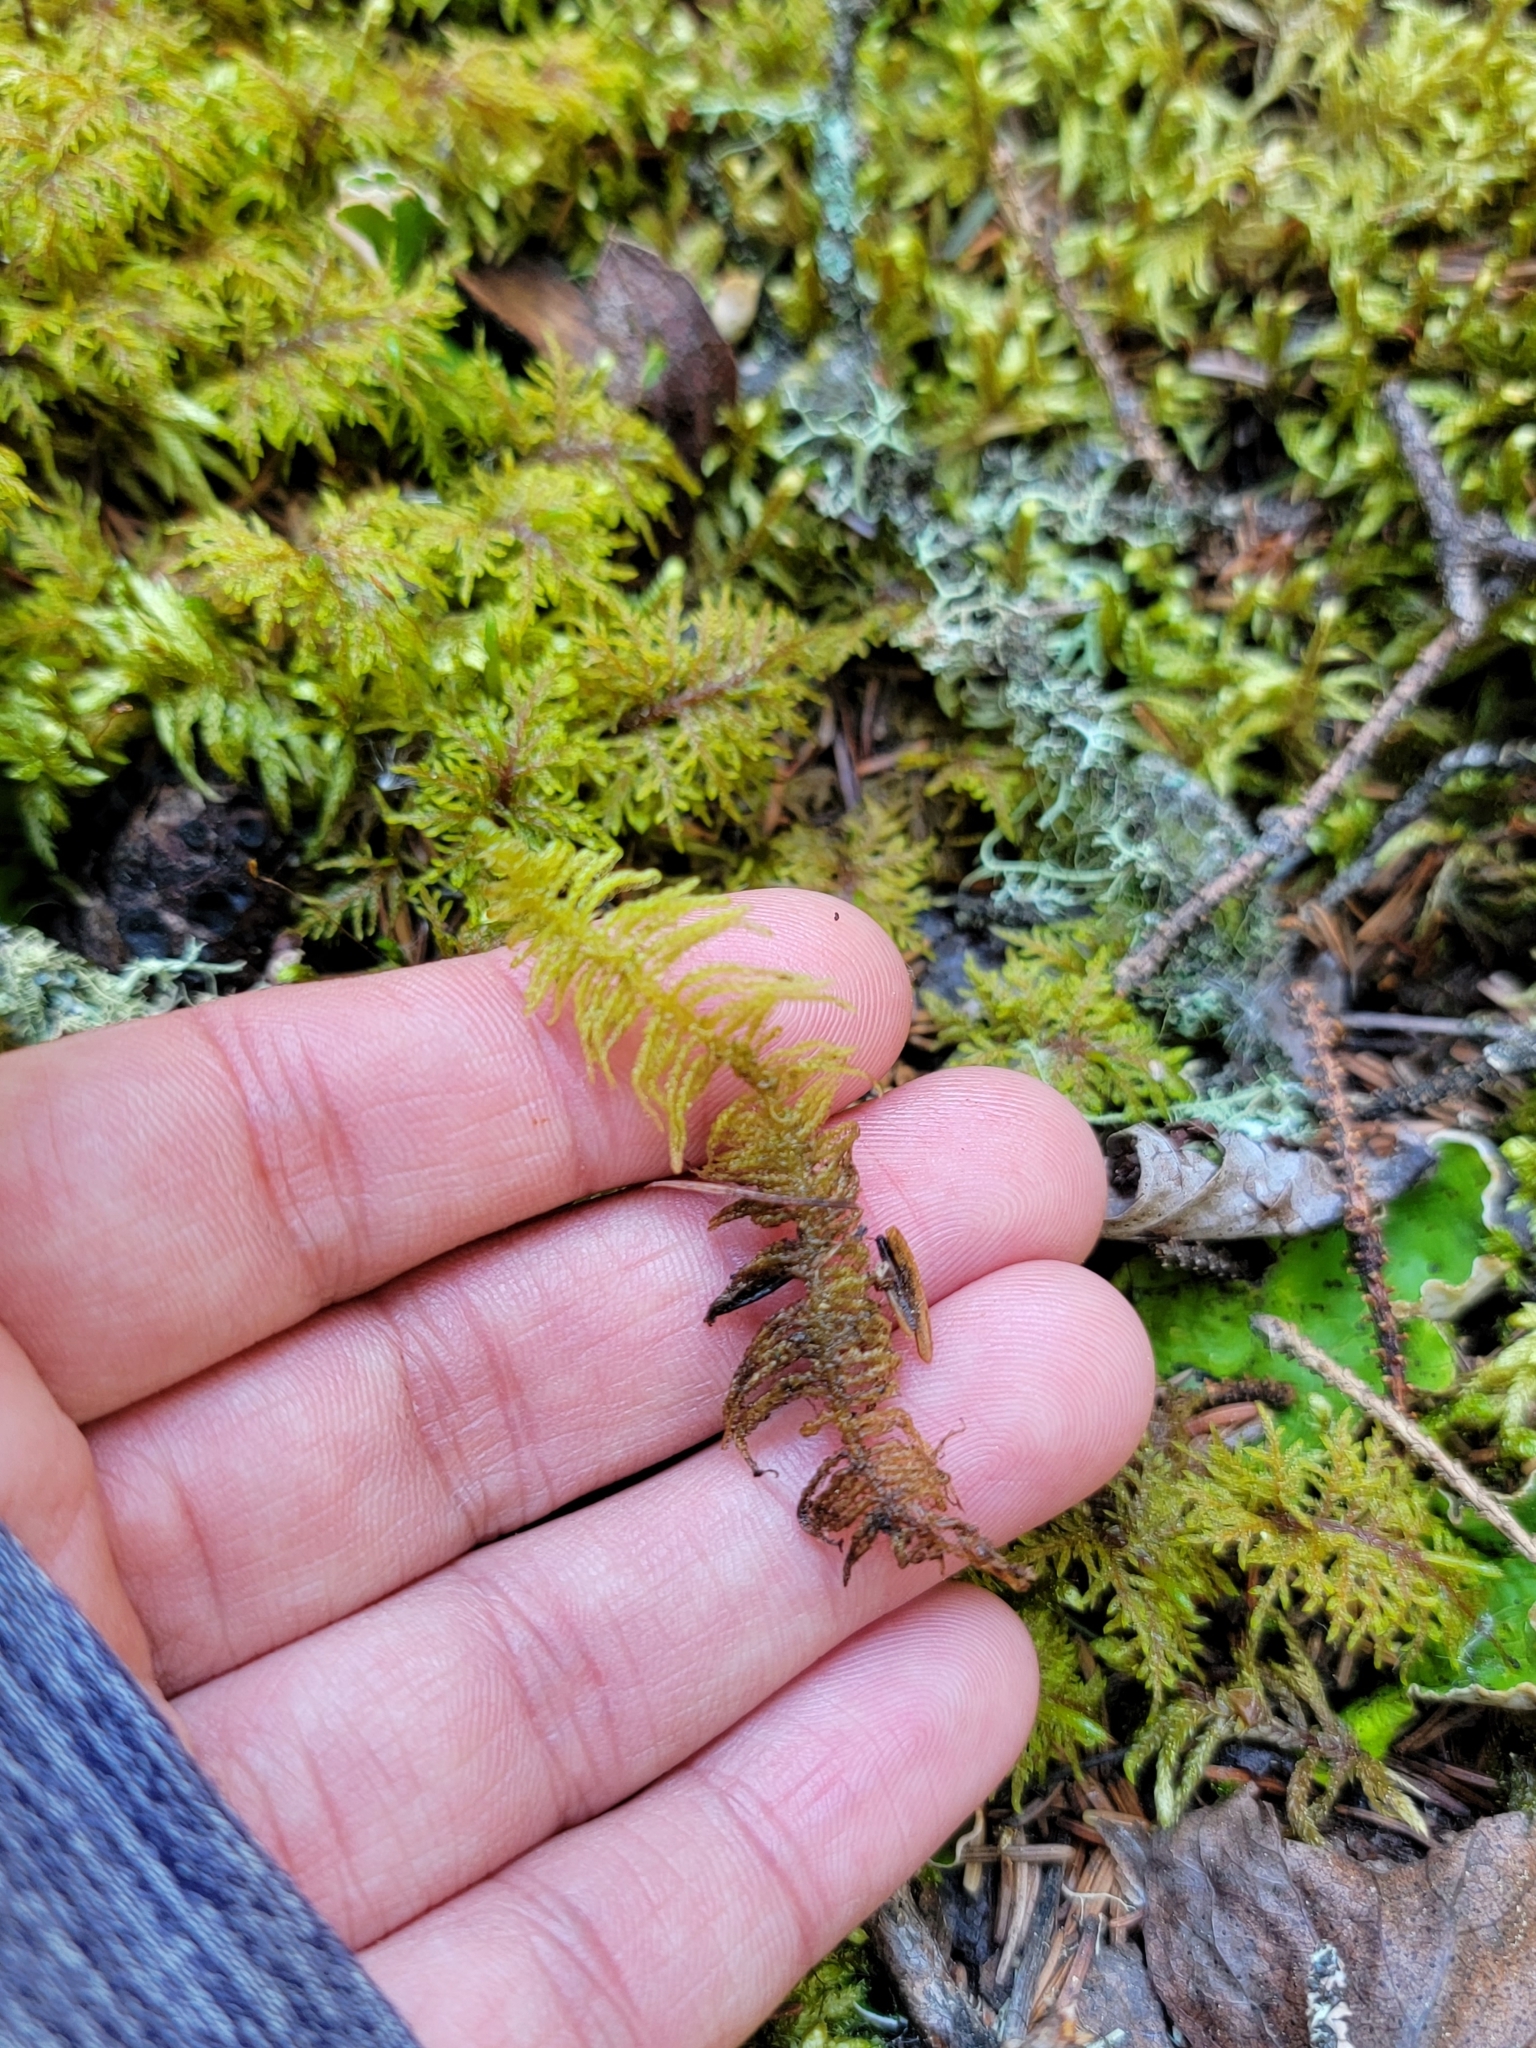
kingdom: Plantae
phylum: Bryophyta
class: Bryopsida
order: Hypnales
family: Pylaisiaceae
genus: Ptilium
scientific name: Ptilium crista-castrensis
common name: Knight's plume moss
